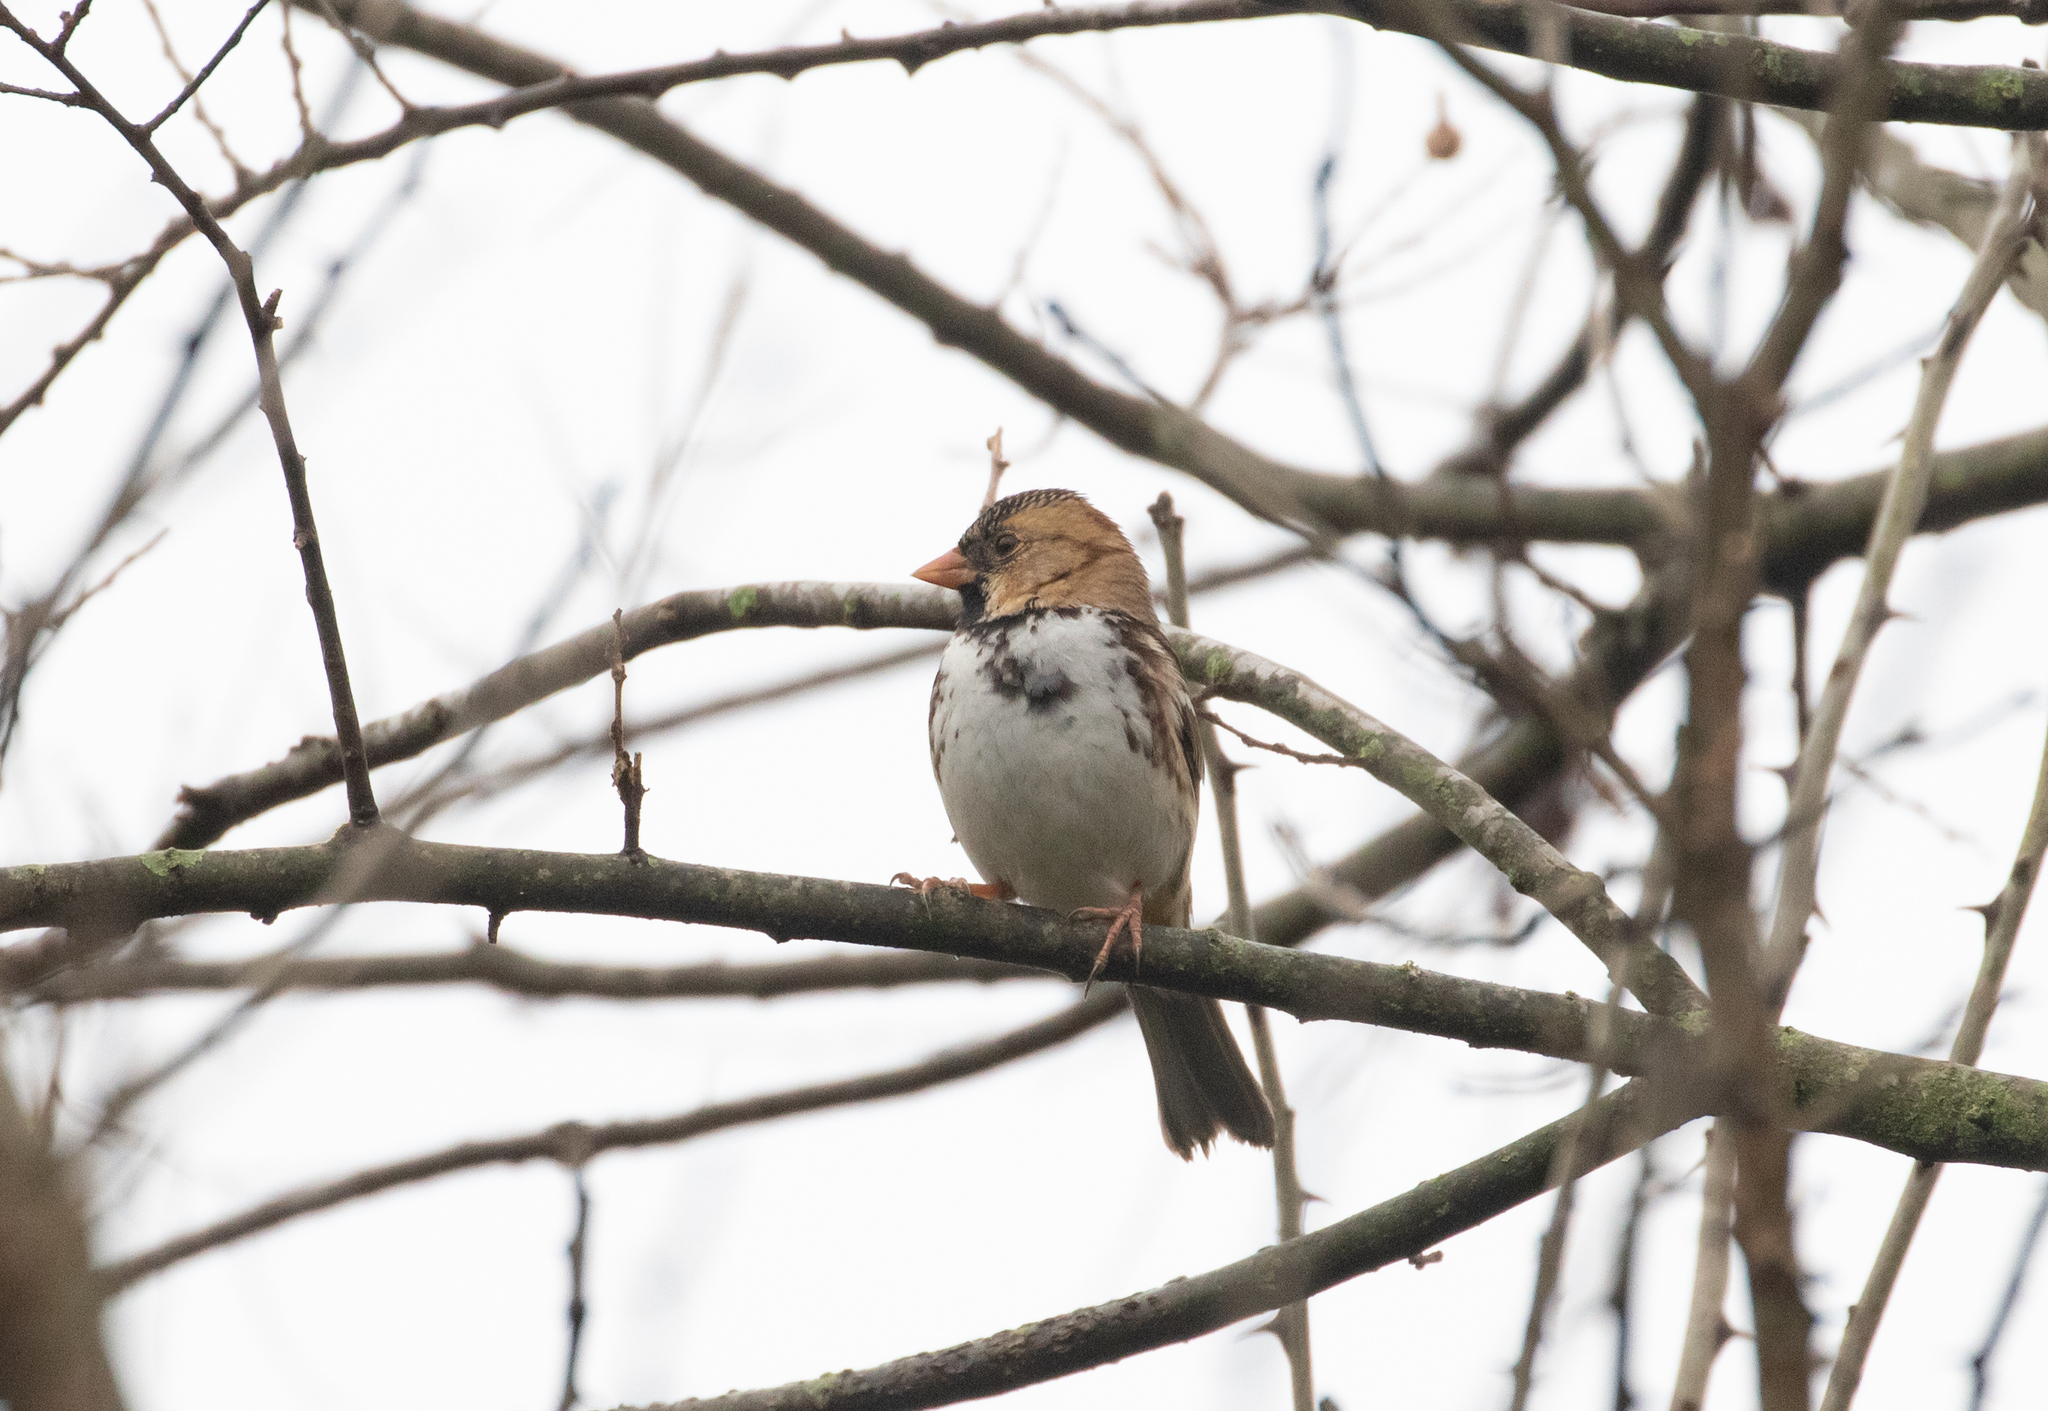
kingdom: Animalia
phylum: Chordata
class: Aves
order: Passeriformes
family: Passerellidae
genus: Zonotrichia
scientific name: Zonotrichia querula
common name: Harris's sparrow
